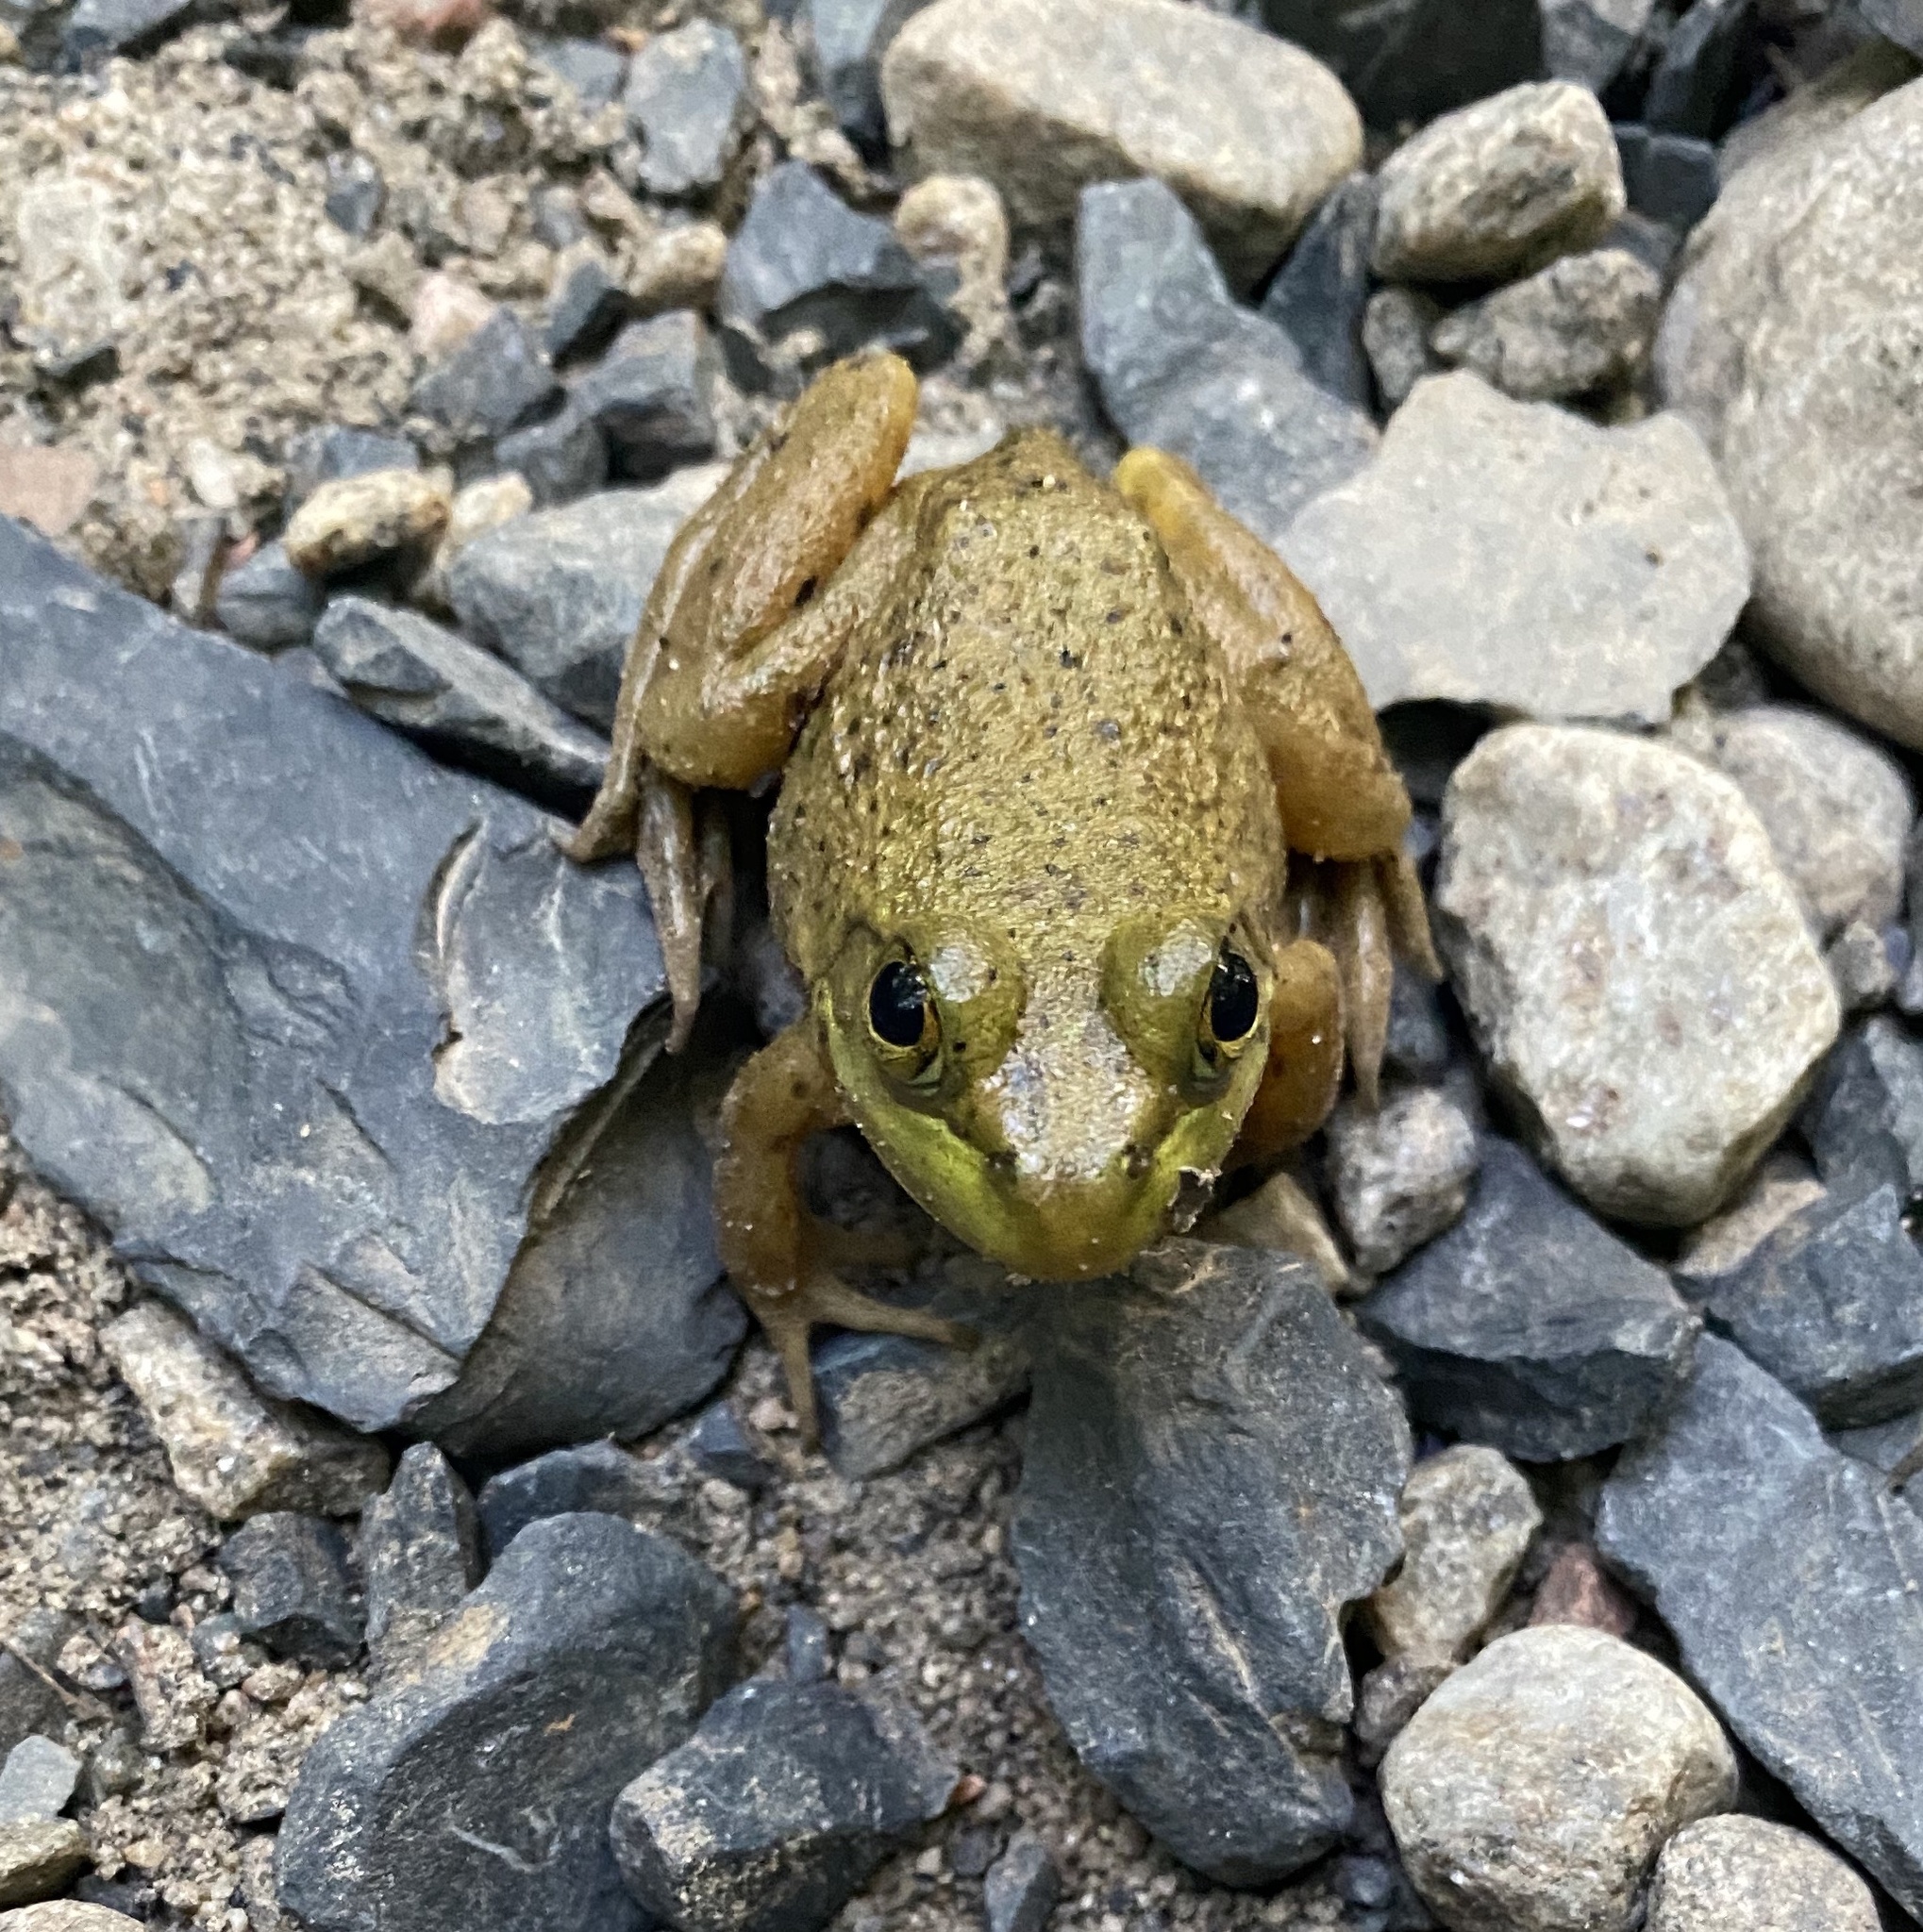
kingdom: Animalia
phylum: Chordata
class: Amphibia
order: Anura
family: Ranidae
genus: Lithobates
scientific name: Lithobates catesbeianus
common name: American bullfrog
